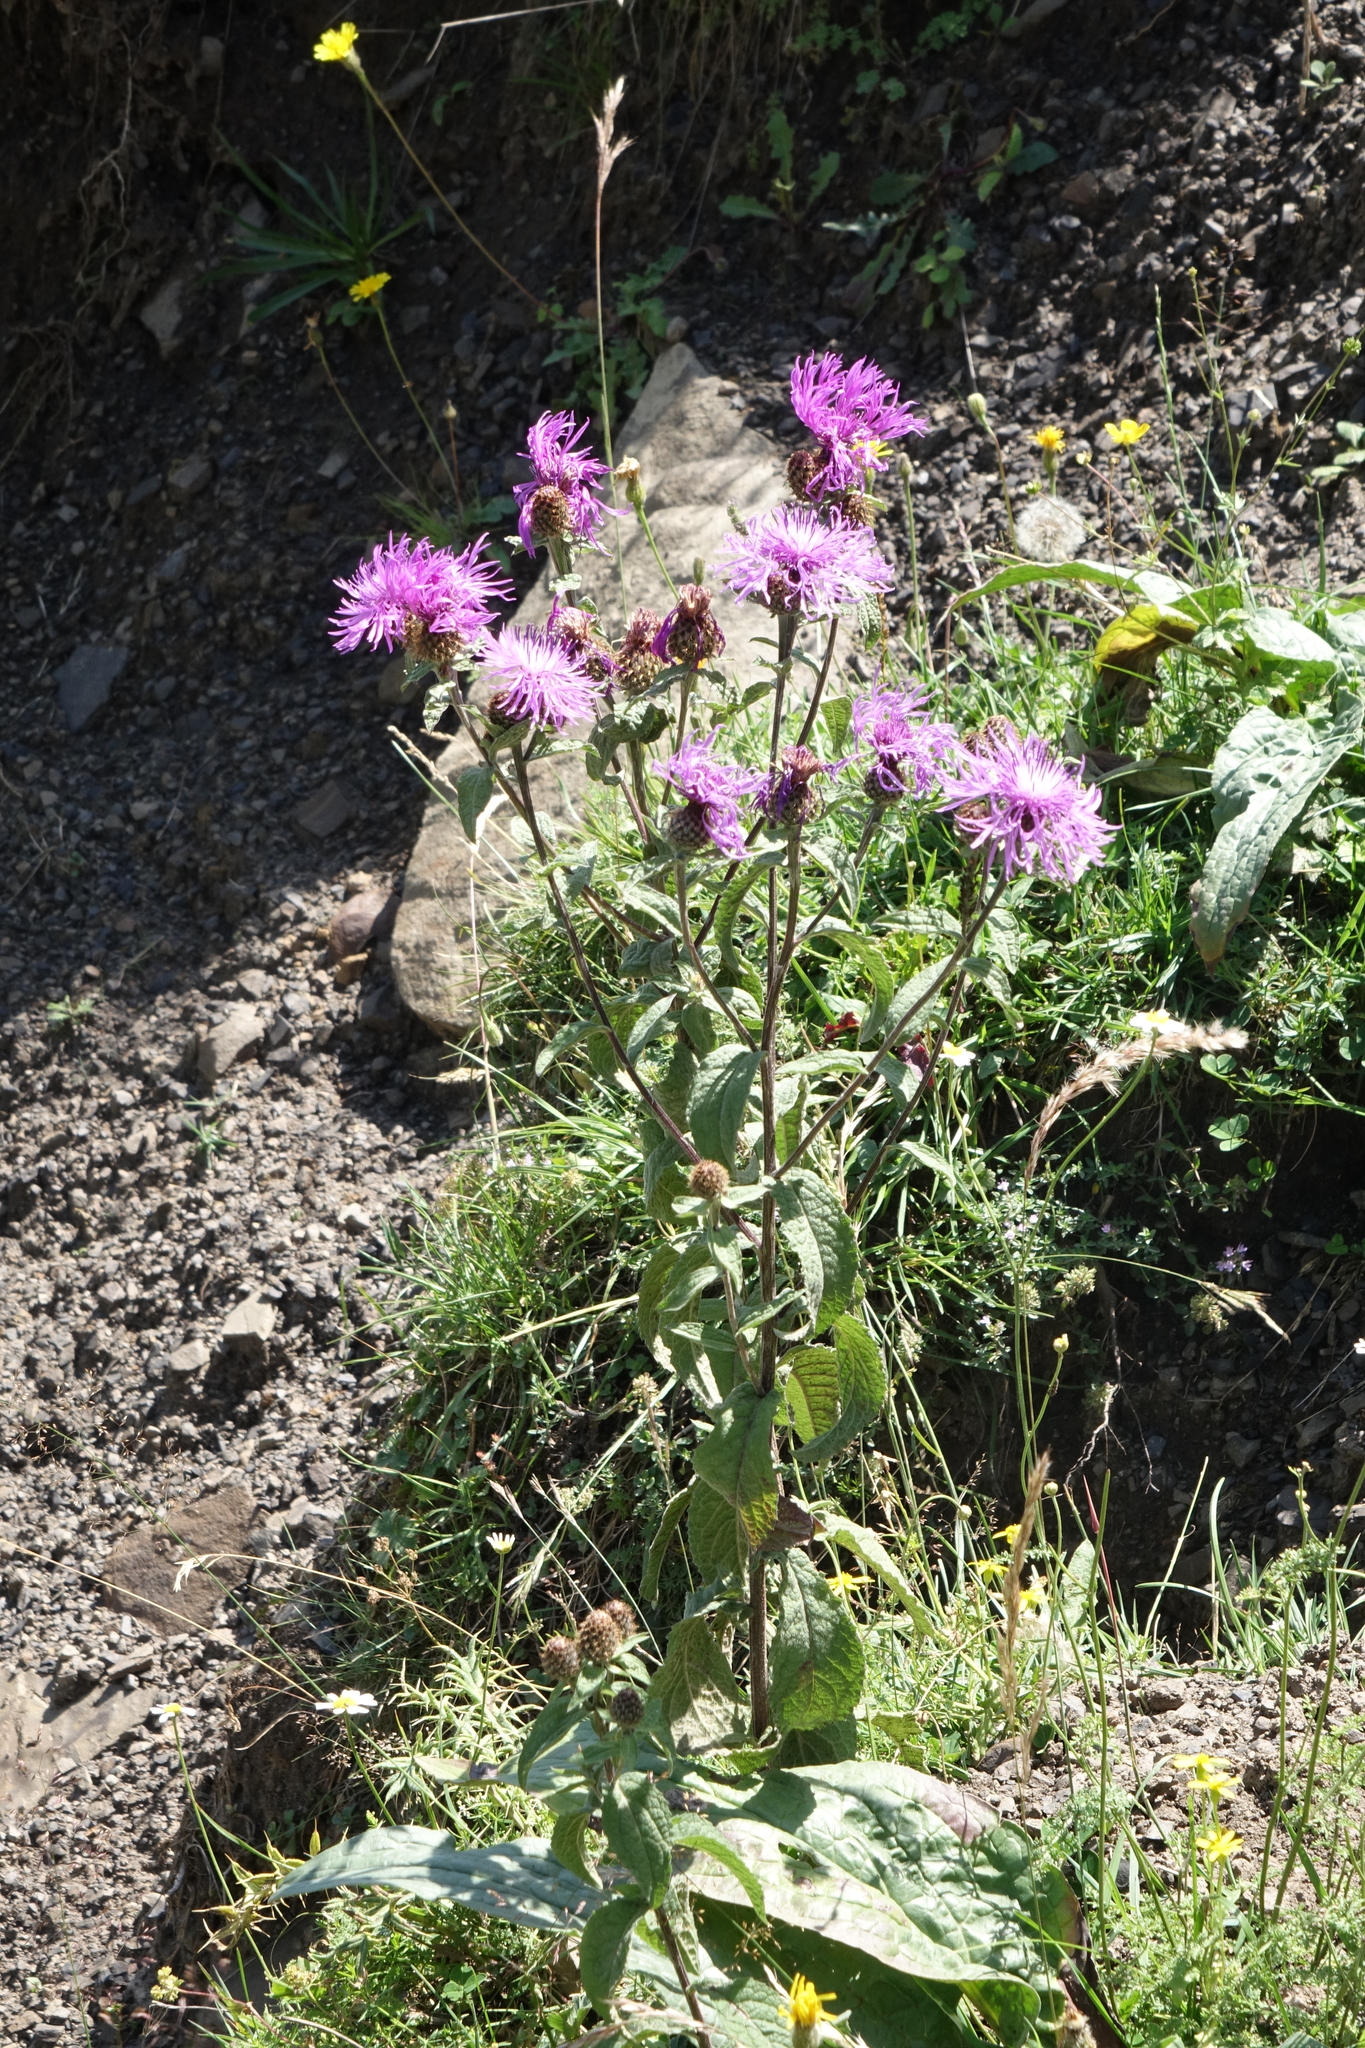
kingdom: Plantae
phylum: Tracheophyta
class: Magnoliopsida
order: Asterales
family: Asteraceae
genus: Centaurea
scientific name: Centaurea phrygia
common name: Wig knapweed
